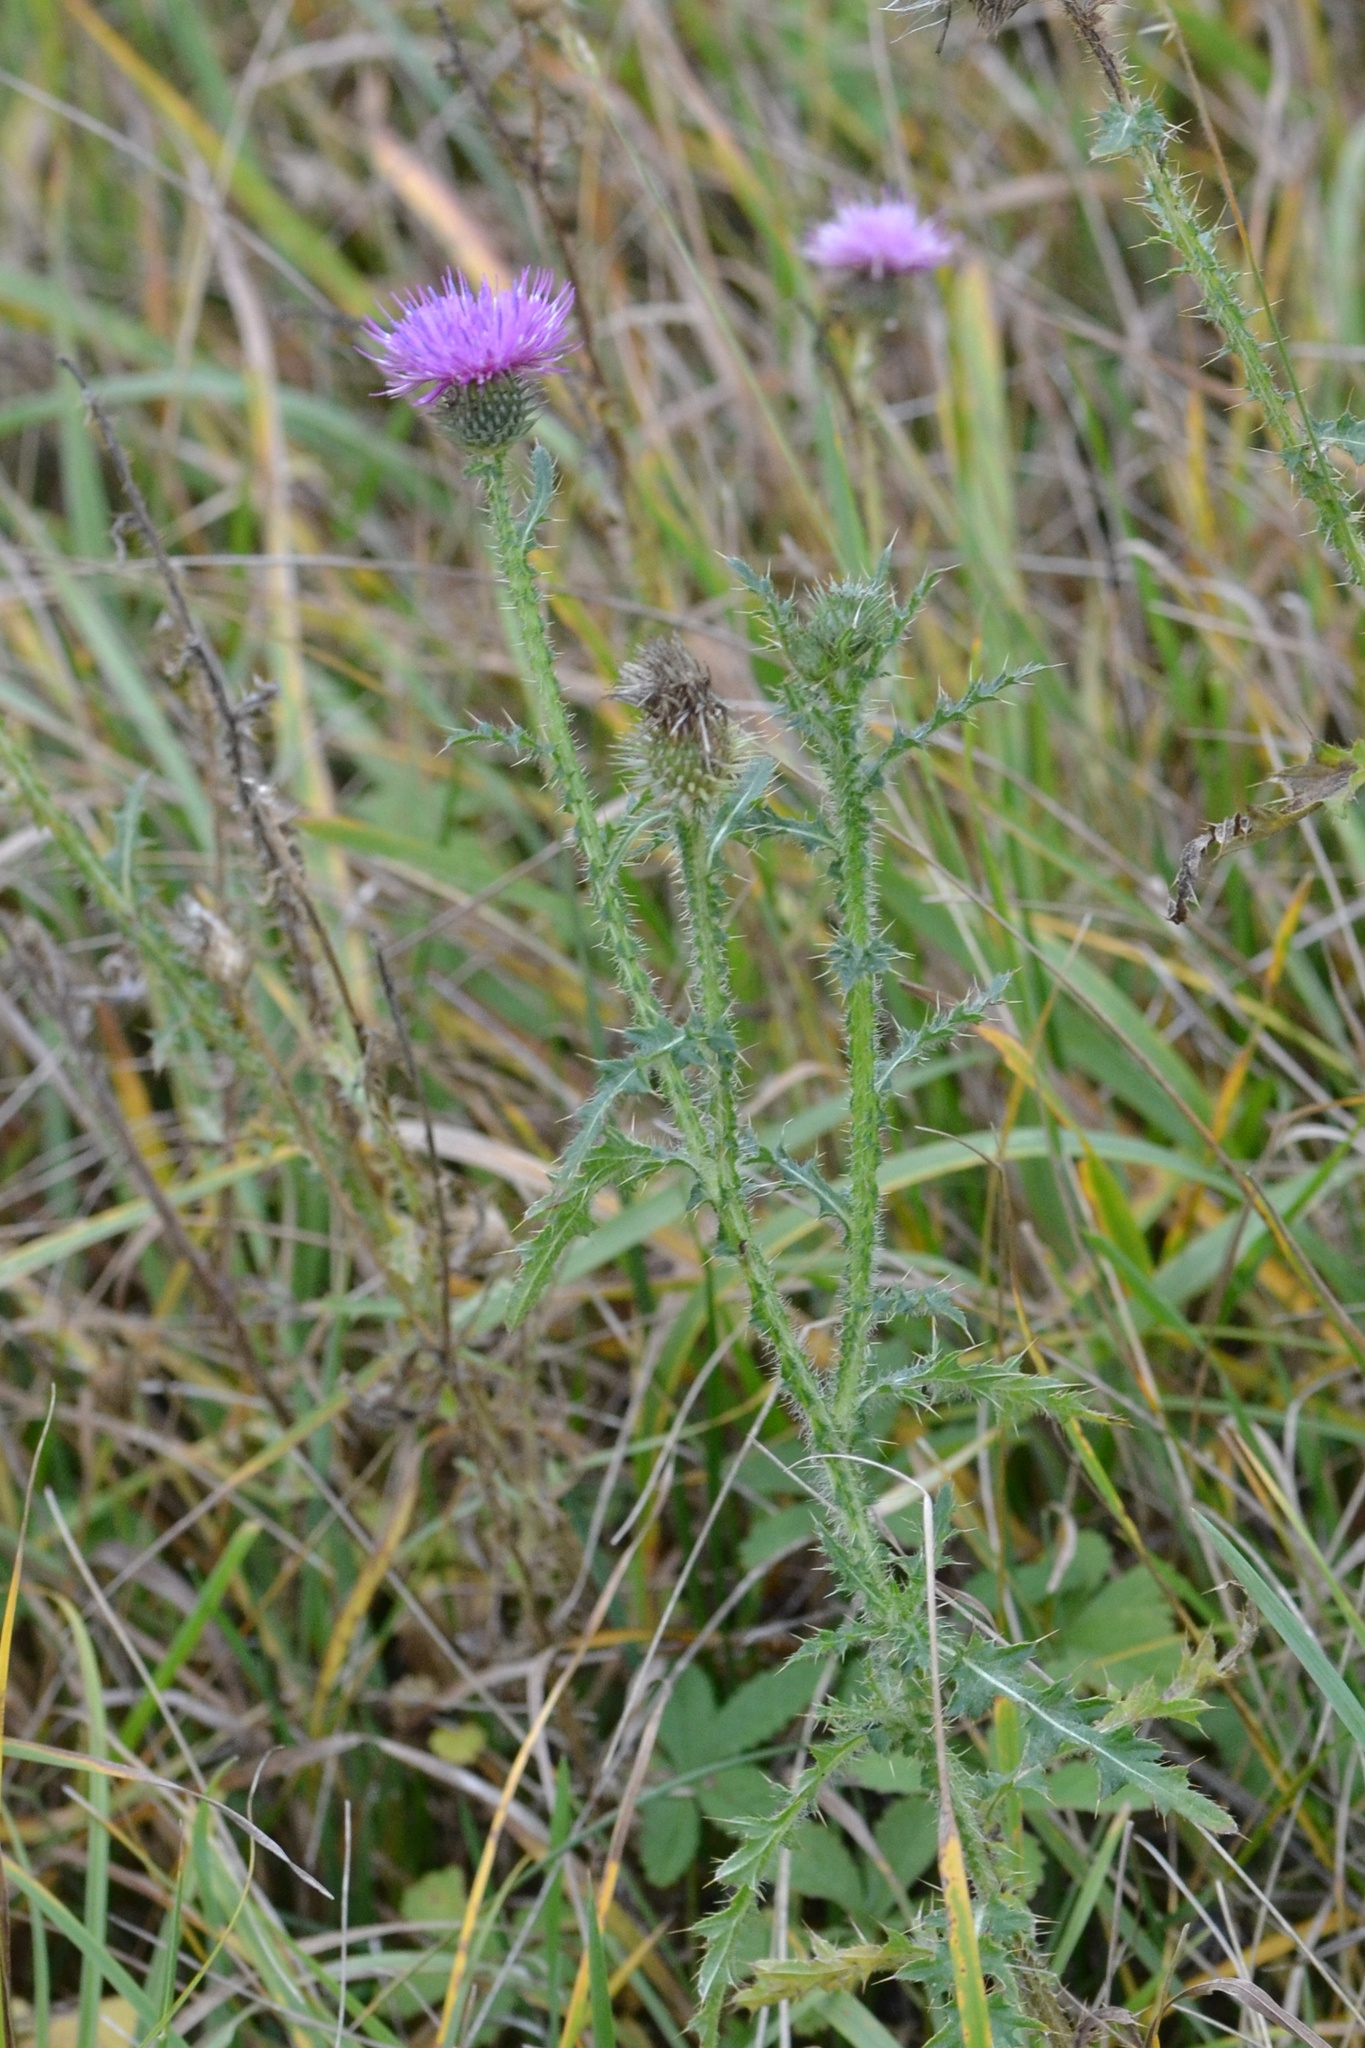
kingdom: Plantae
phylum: Tracheophyta
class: Magnoliopsida
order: Asterales
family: Asteraceae
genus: Carduus
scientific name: Carduus acanthoides
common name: Plumeless thistle
